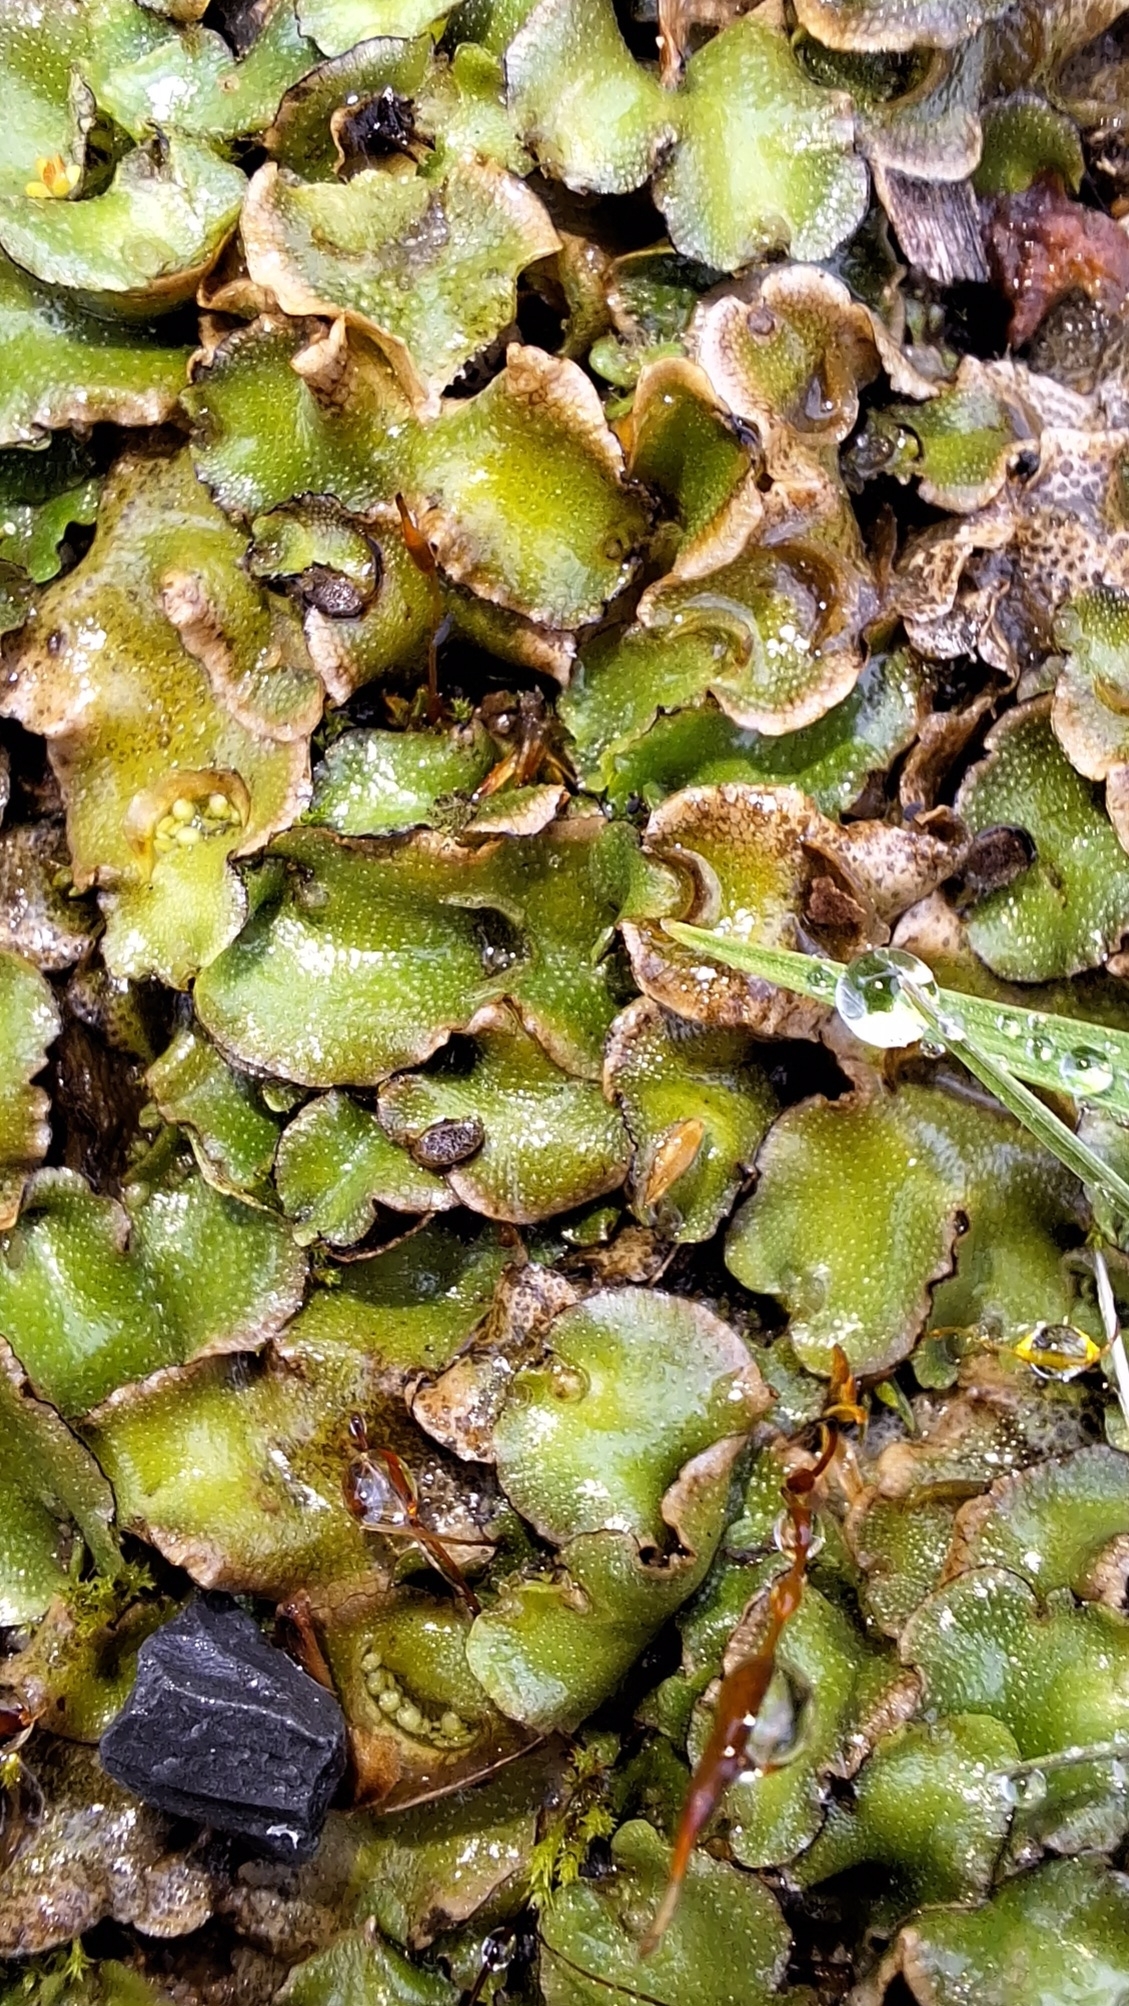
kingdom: Plantae
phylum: Marchantiophyta
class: Marchantiopsida
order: Lunulariales
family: Lunulariaceae
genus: Lunularia
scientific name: Lunularia cruciata
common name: Crescent-cup liverwort
